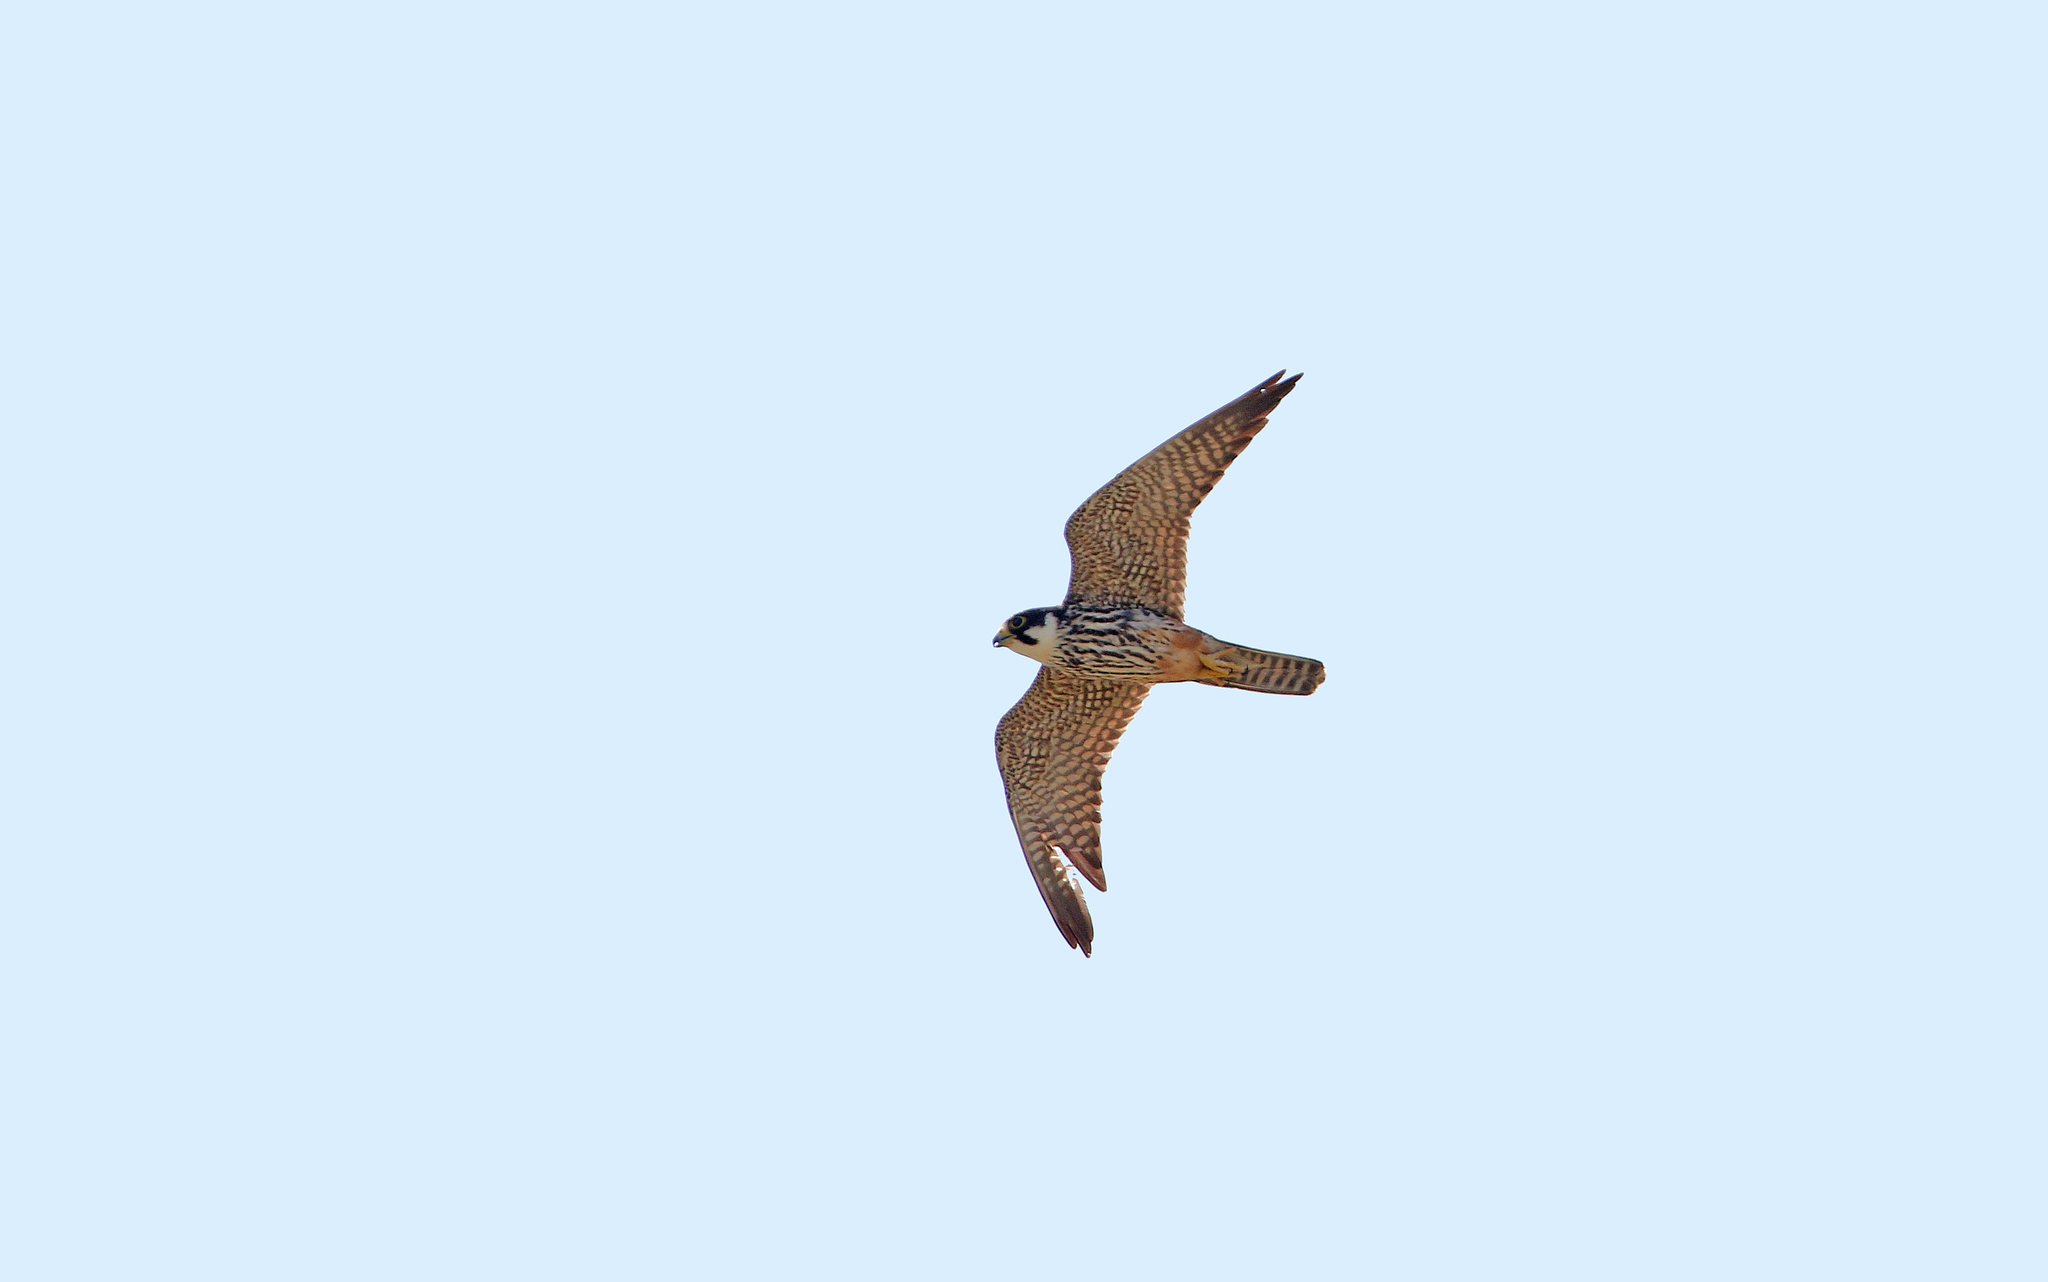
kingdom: Animalia
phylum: Chordata
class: Aves
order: Falconiformes
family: Falconidae
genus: Falco
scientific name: Falco subbuteo
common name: Eurasian hobby
